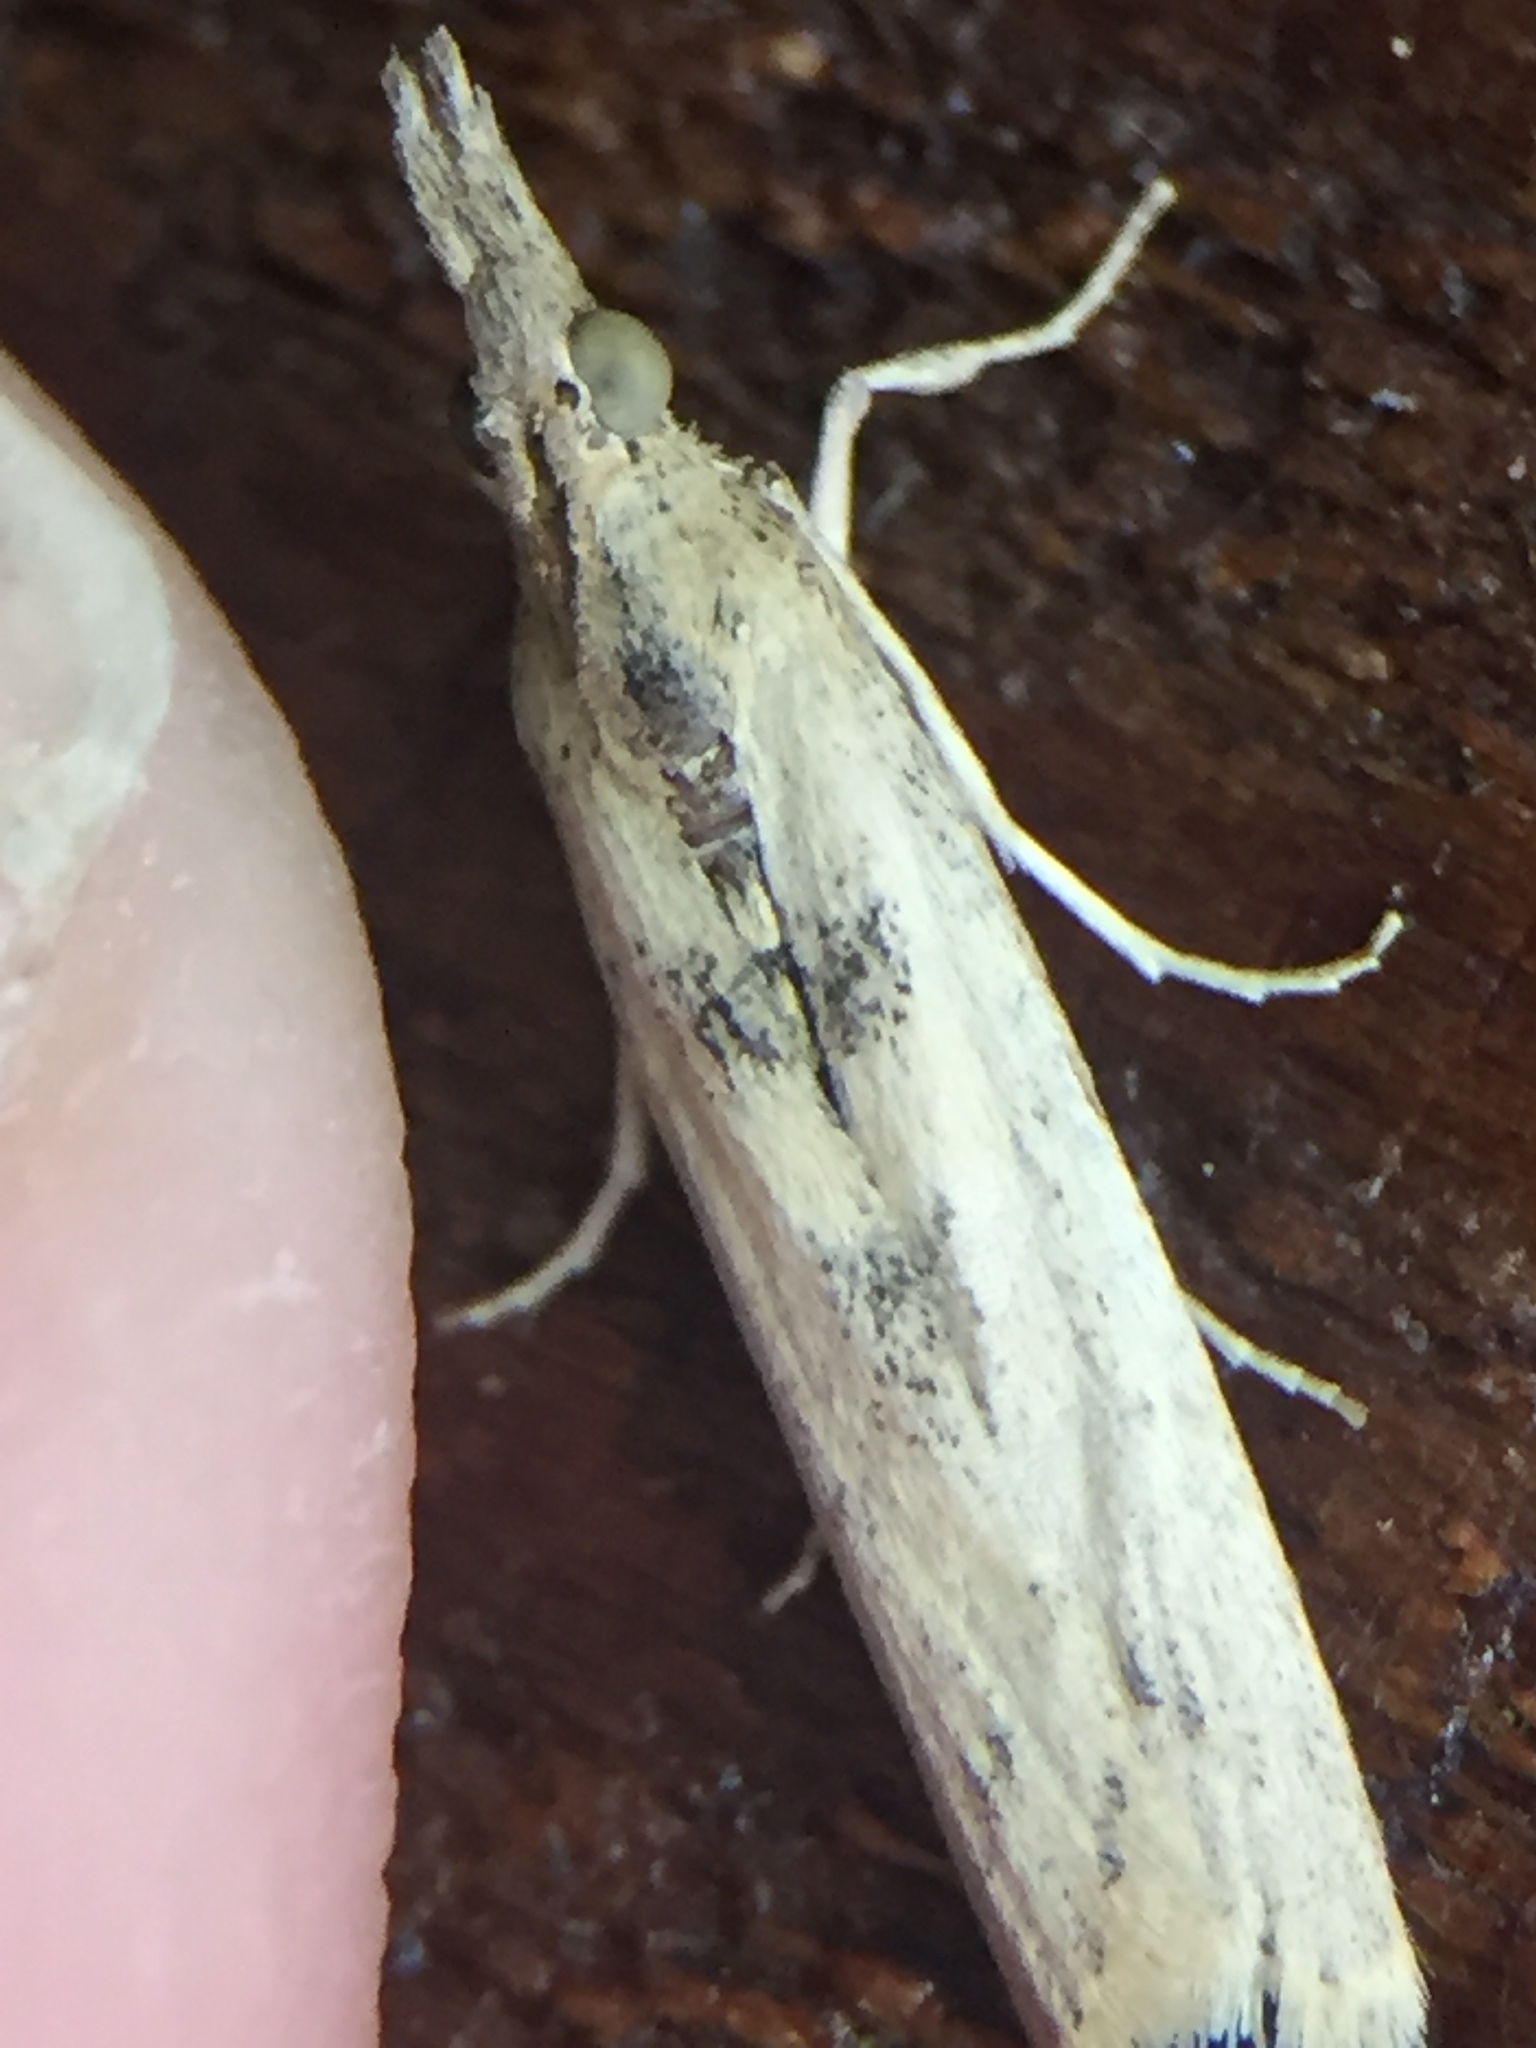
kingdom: Animalia
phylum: Arthropoda
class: Insecta
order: Lepidoptera
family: Pyralidae
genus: Macrorrhinia
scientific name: Macrorrhinia endonephele
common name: Alligator weed stemborer moth
